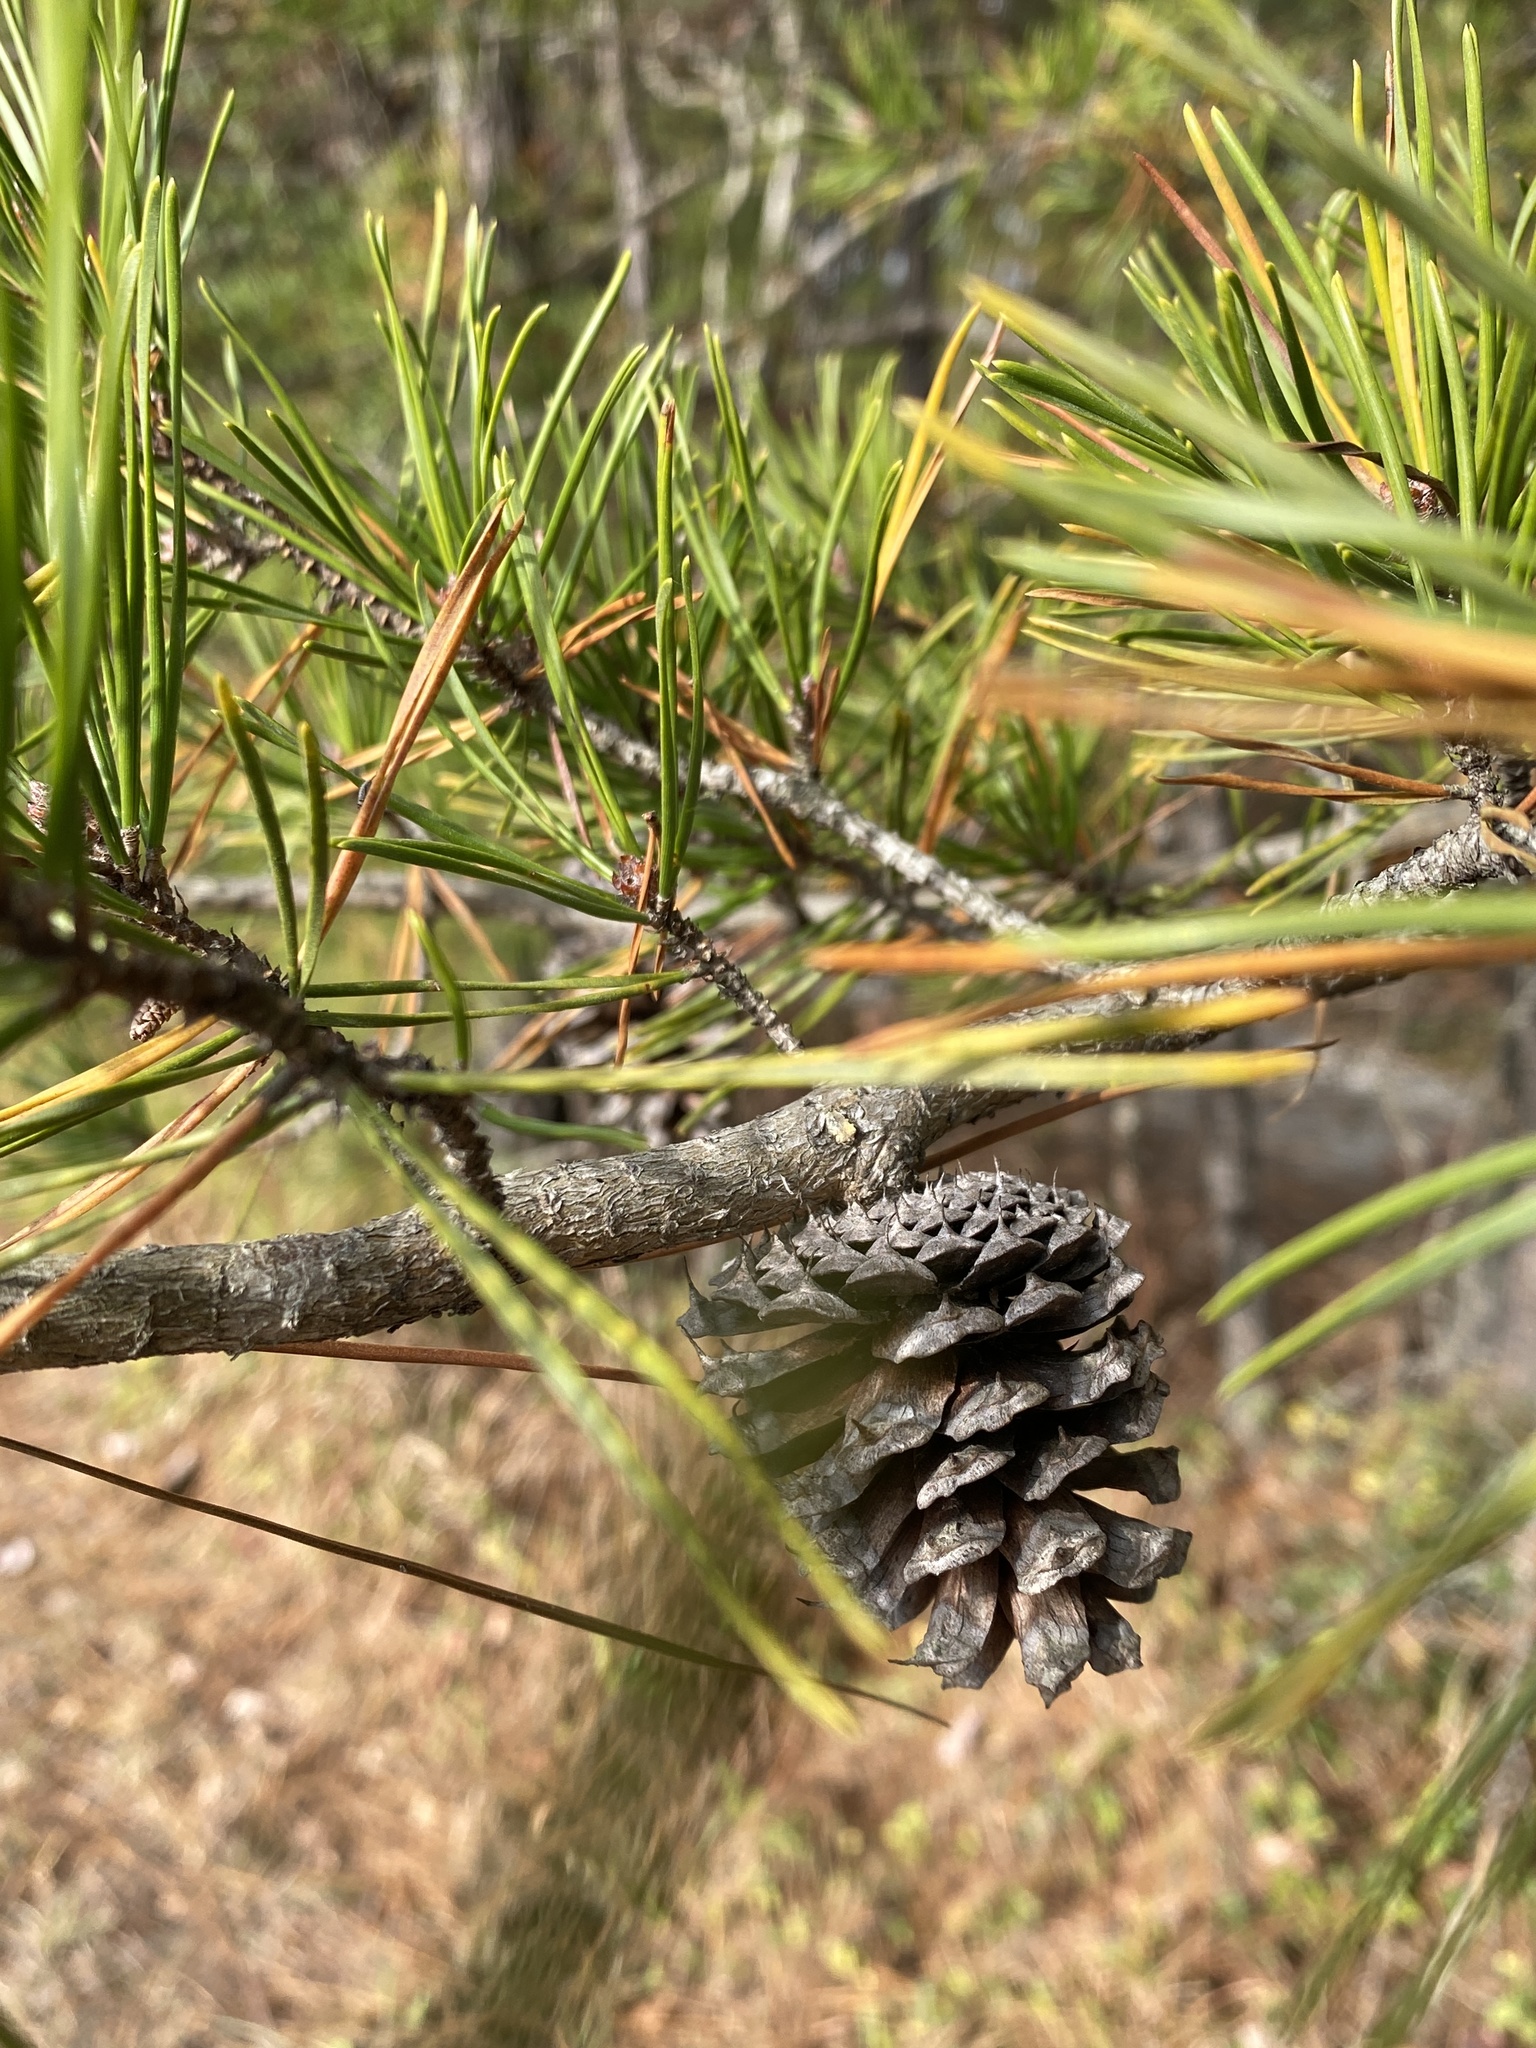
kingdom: Plantae
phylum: Tracheophyta
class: Pinopsida
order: Pinales
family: Pinaceae
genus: Pinus
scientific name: Pinus virginiana
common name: Scrub pine
